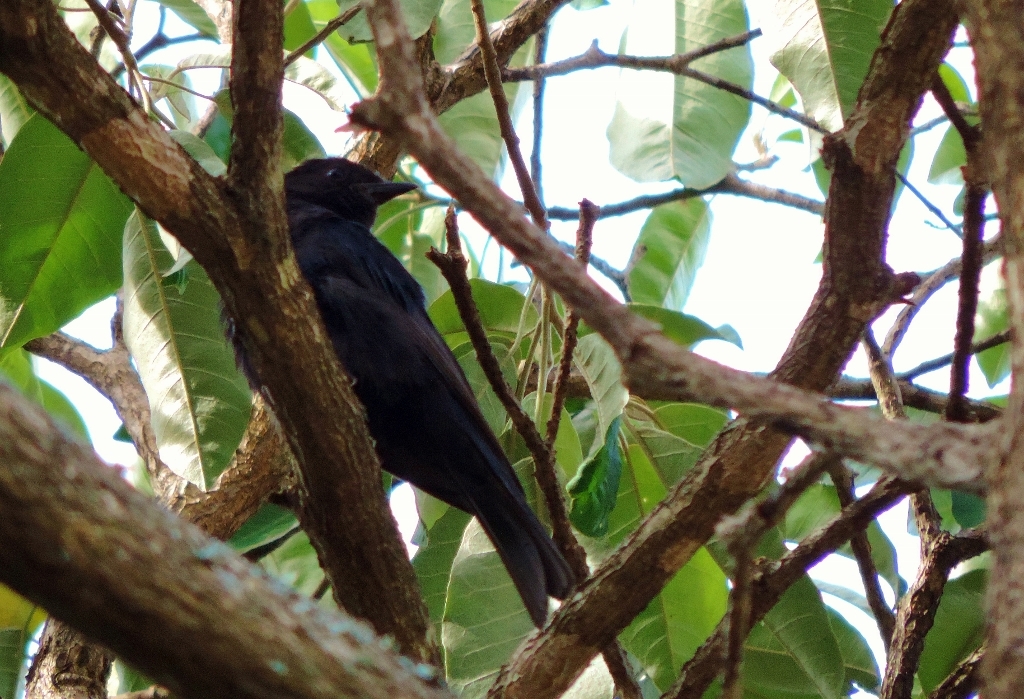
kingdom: Animalia
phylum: Chordata
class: Aves
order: Passeriformes
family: Muscicapidae
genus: Melaenornis
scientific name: Melaenornis pammelaina
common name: Southern black flycatcher
